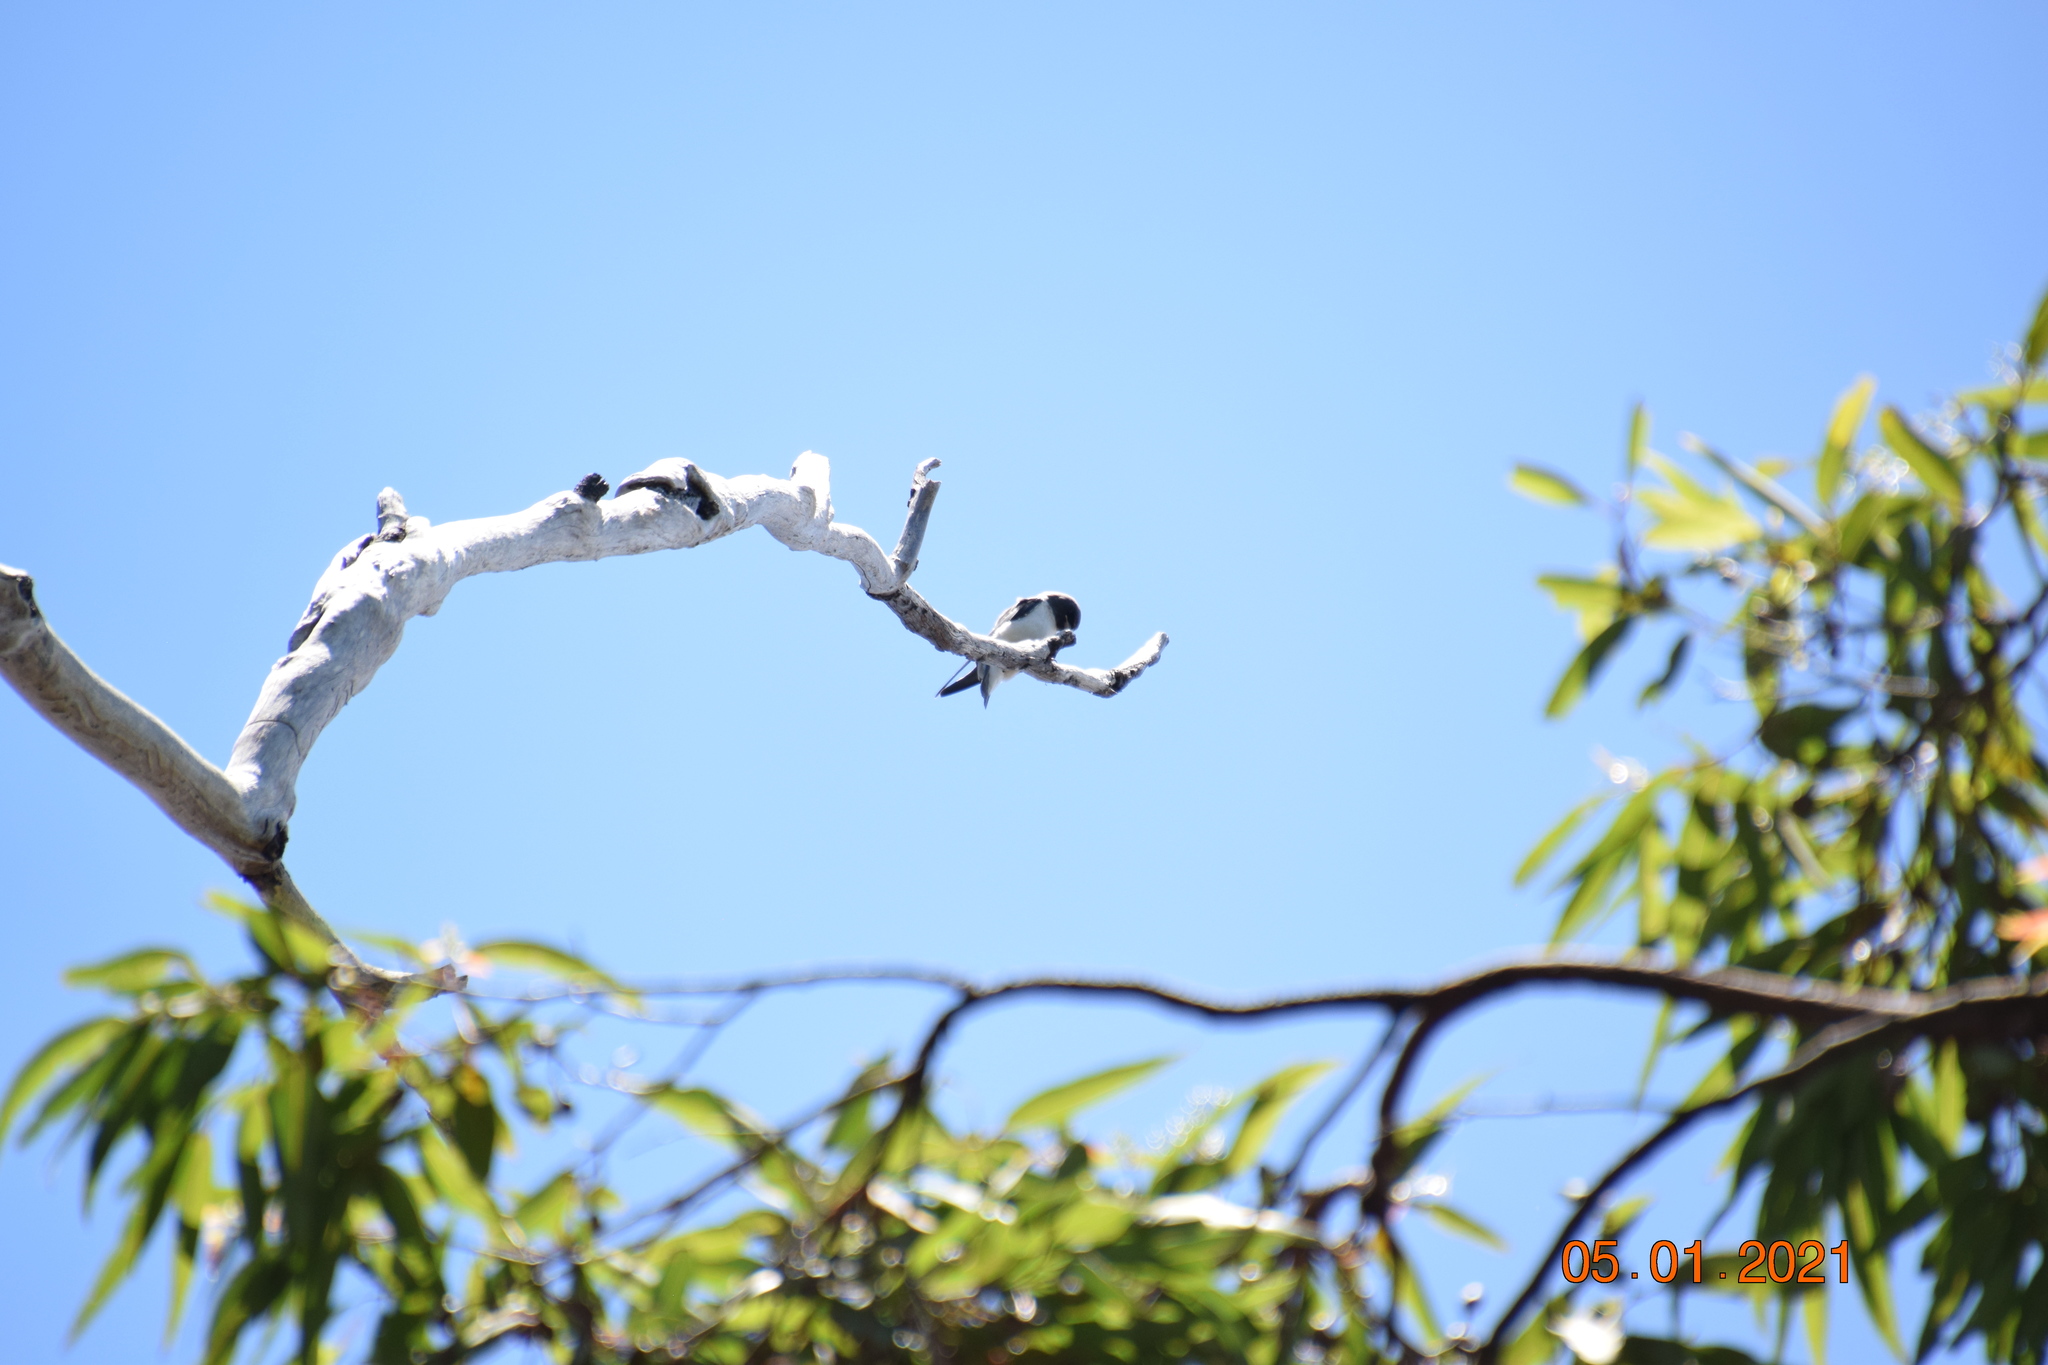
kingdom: Animalia
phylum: Chordata
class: Aves
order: Passeriformes
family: Artamidae
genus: Artamus
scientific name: Artamus leucoryn
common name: White-breasted woodswallow
